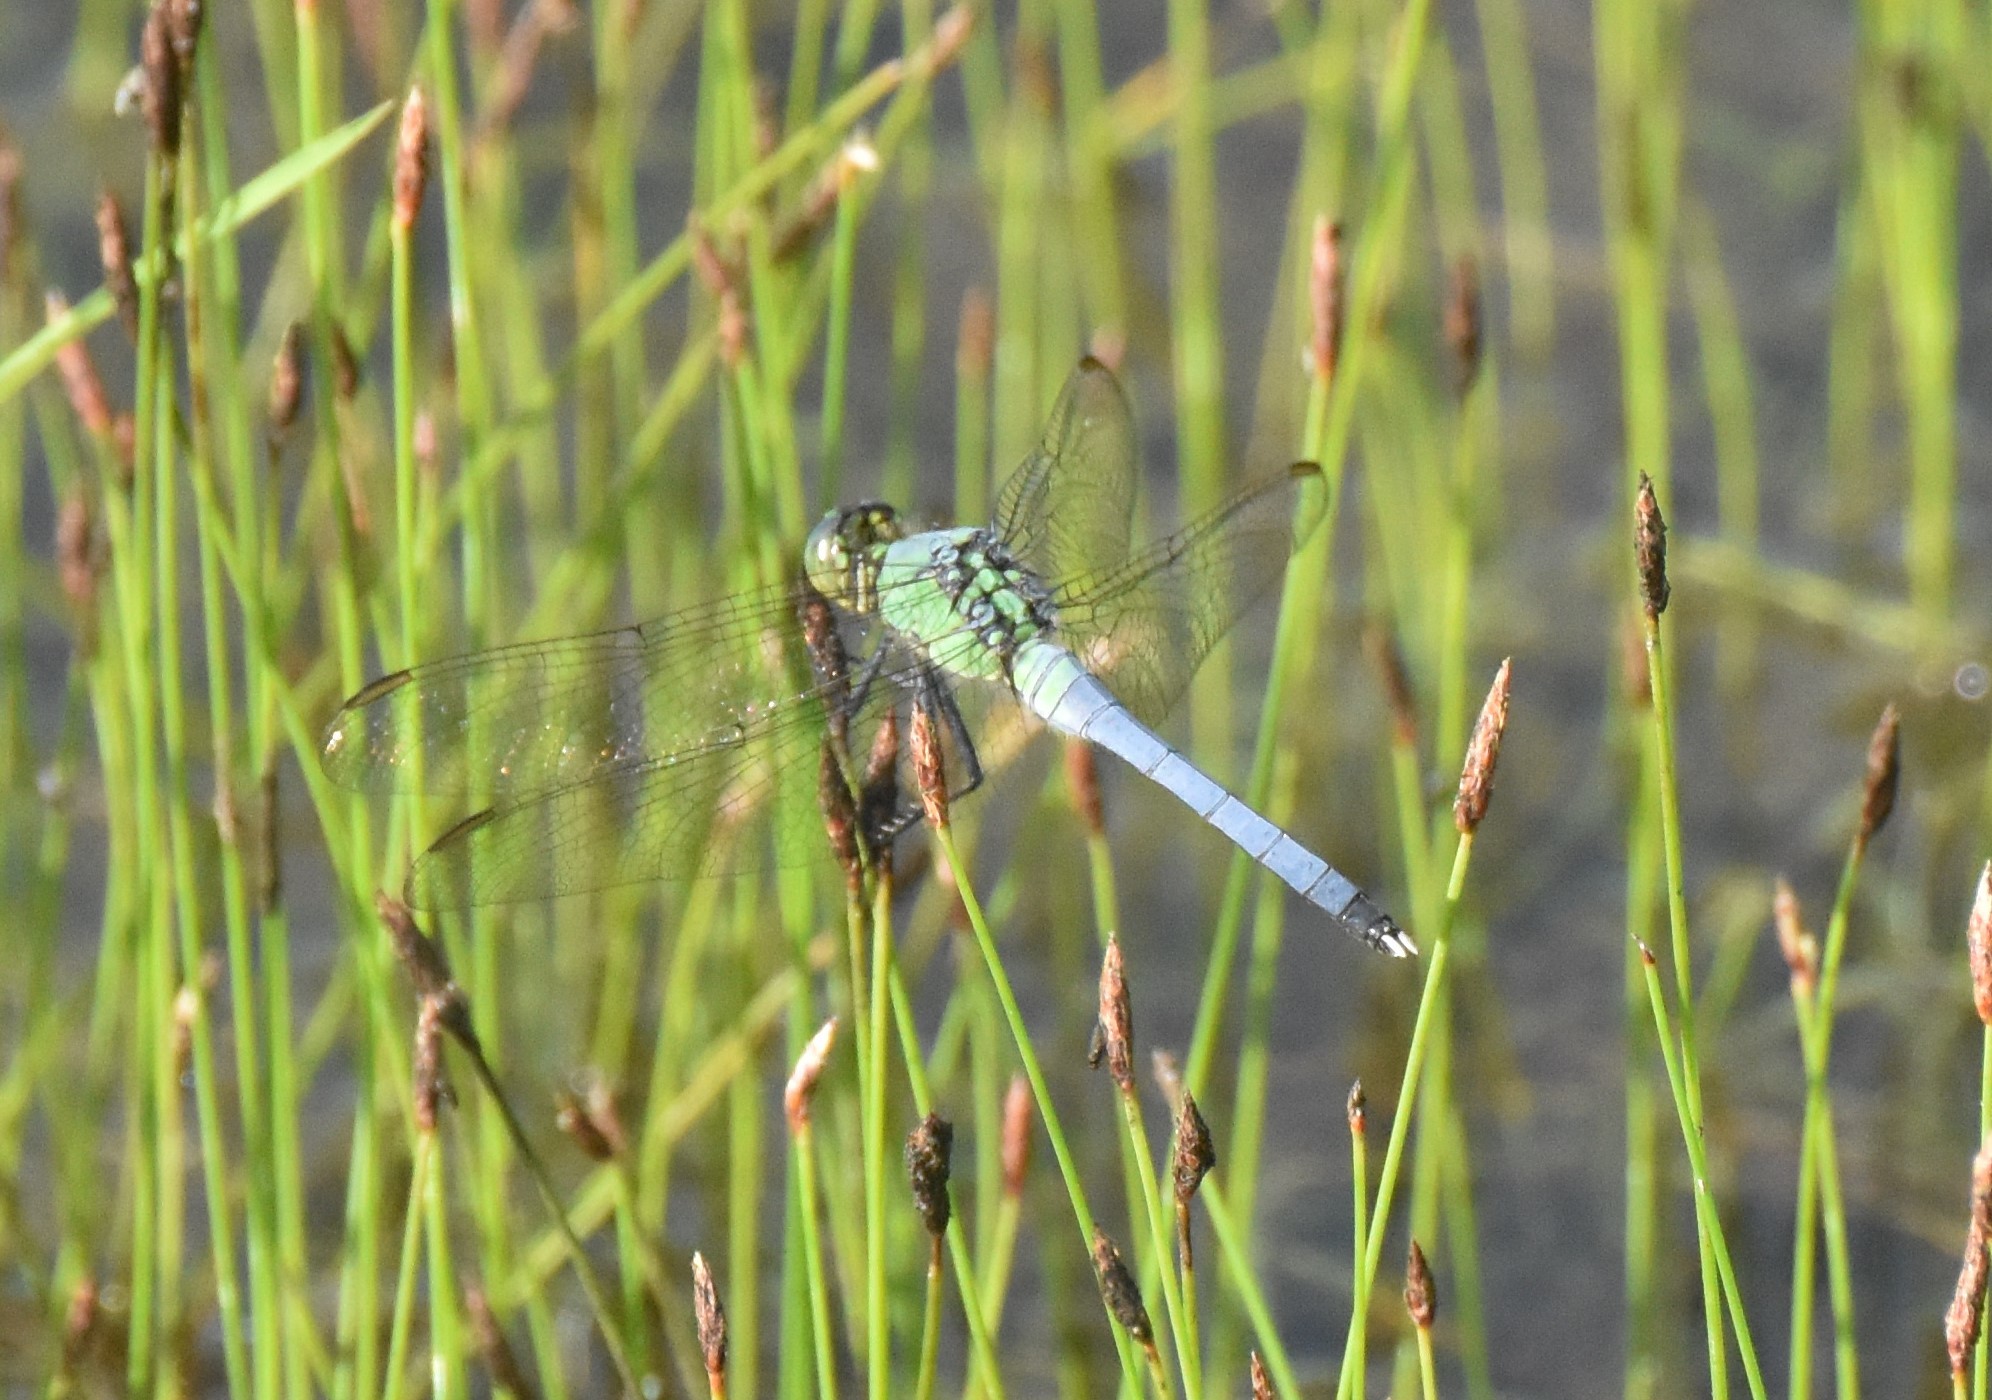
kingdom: Animalia
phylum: Arthropoda
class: Insecta
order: Odonata
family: Libellulidae
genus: Erythemis
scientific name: Erythemis simplicicollis
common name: Eastern pondhawk
